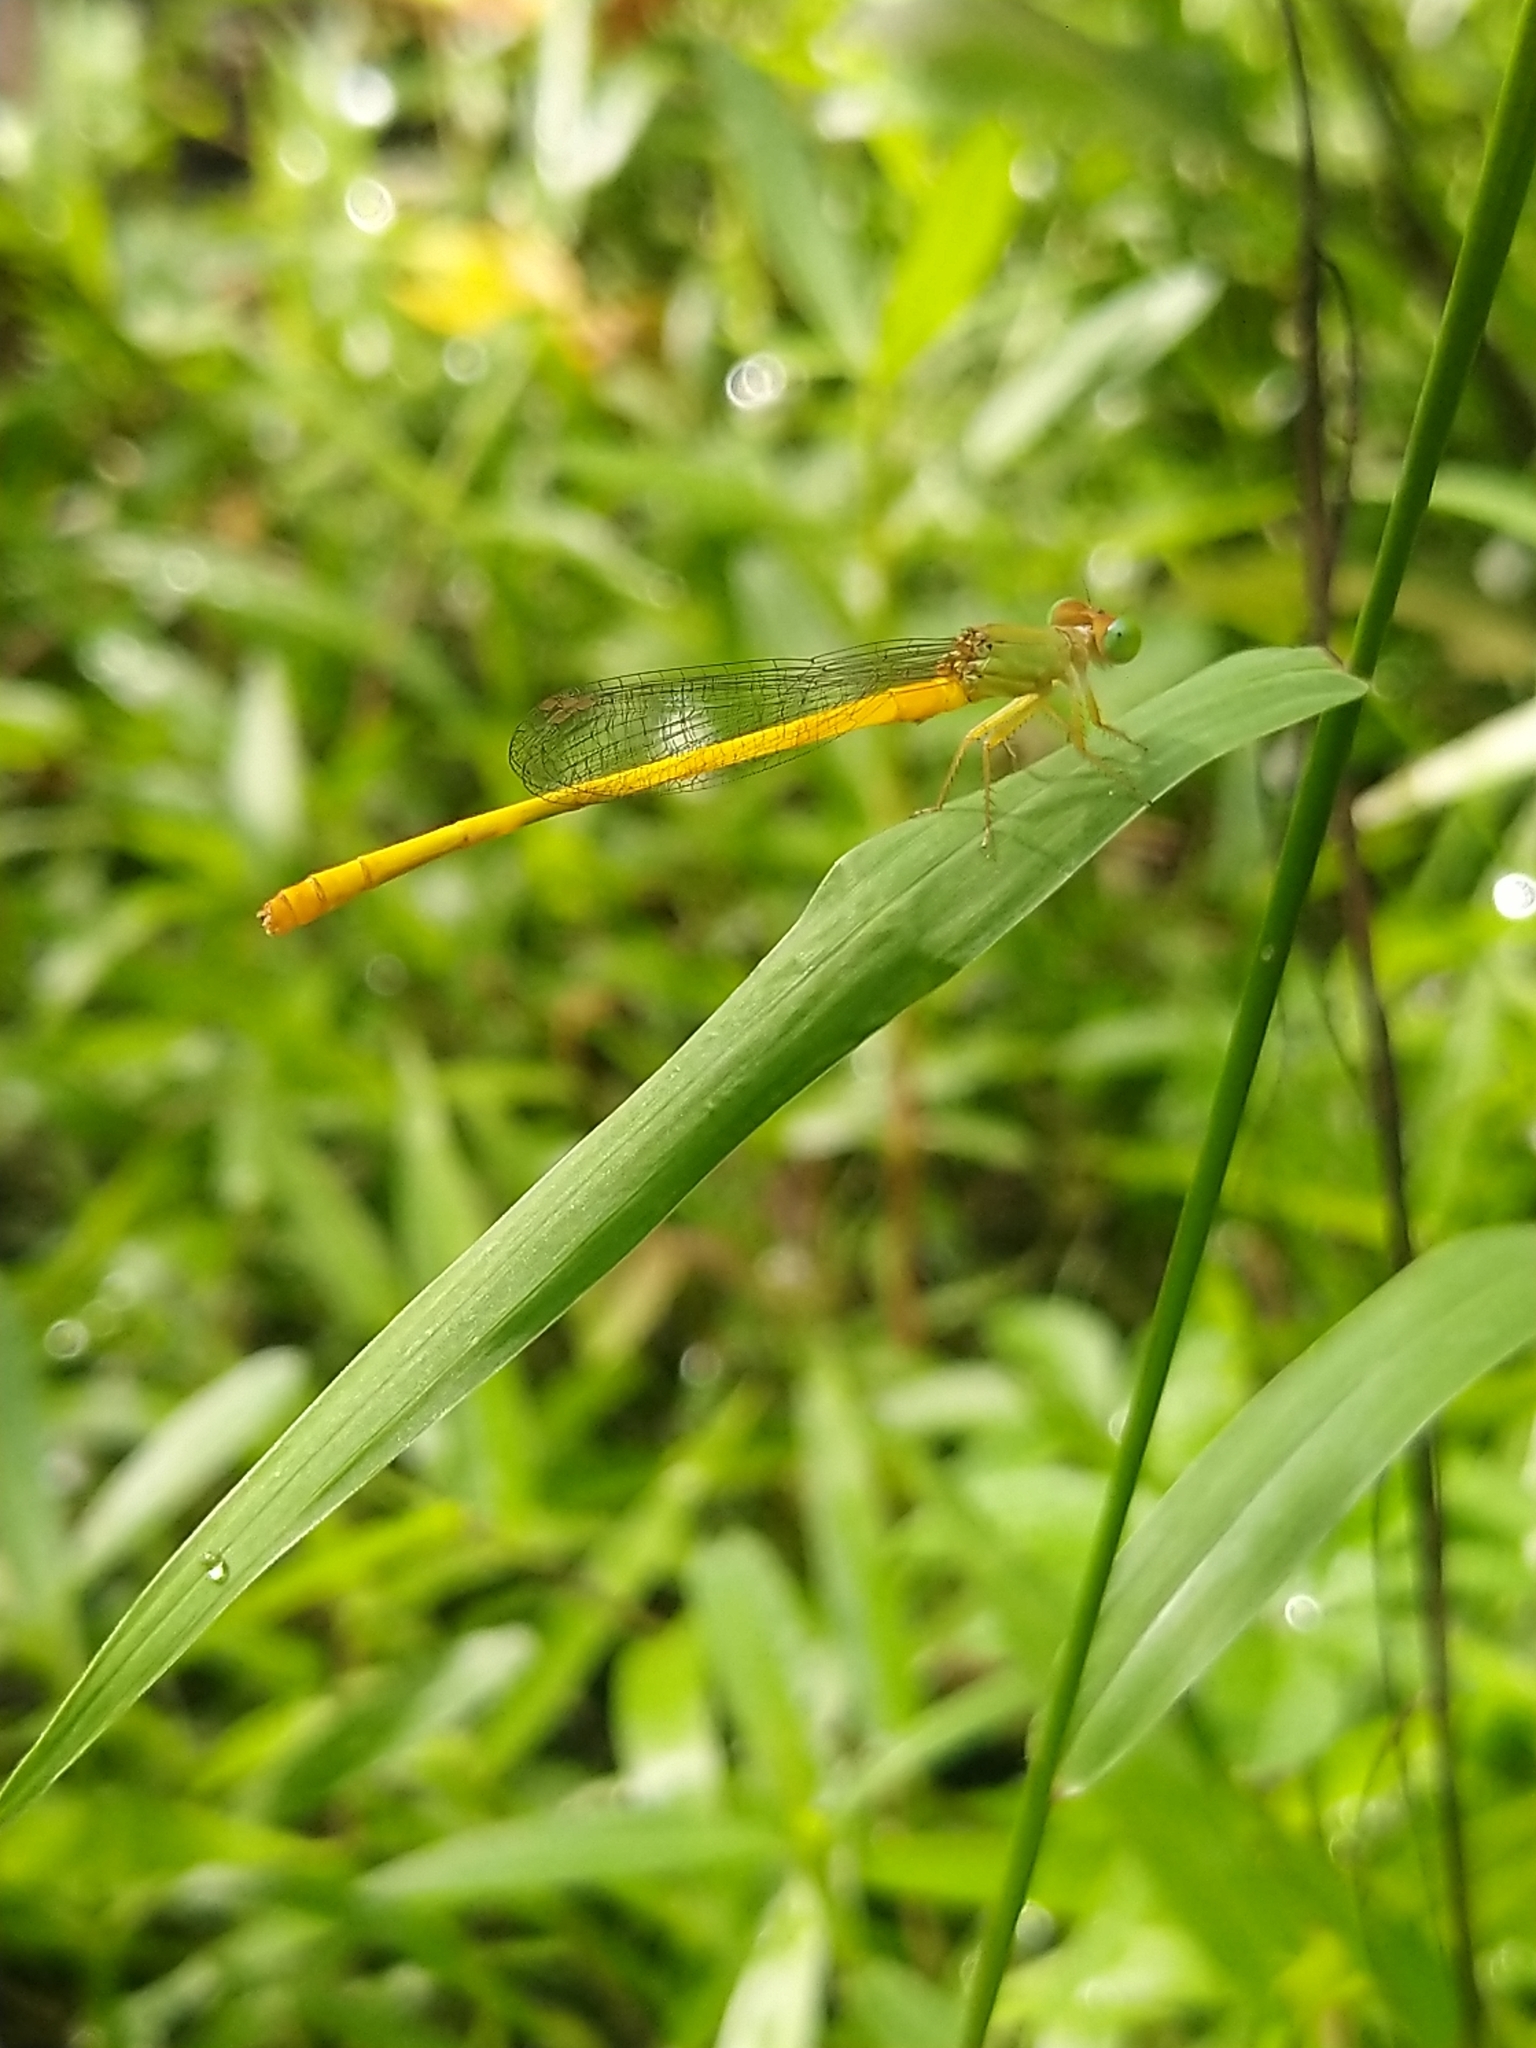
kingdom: Animalia
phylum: Arthropoda
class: Insecta
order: Odonata
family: Coenagrionidae
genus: Ceriagrion
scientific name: Ceriagrion coromandelianum
